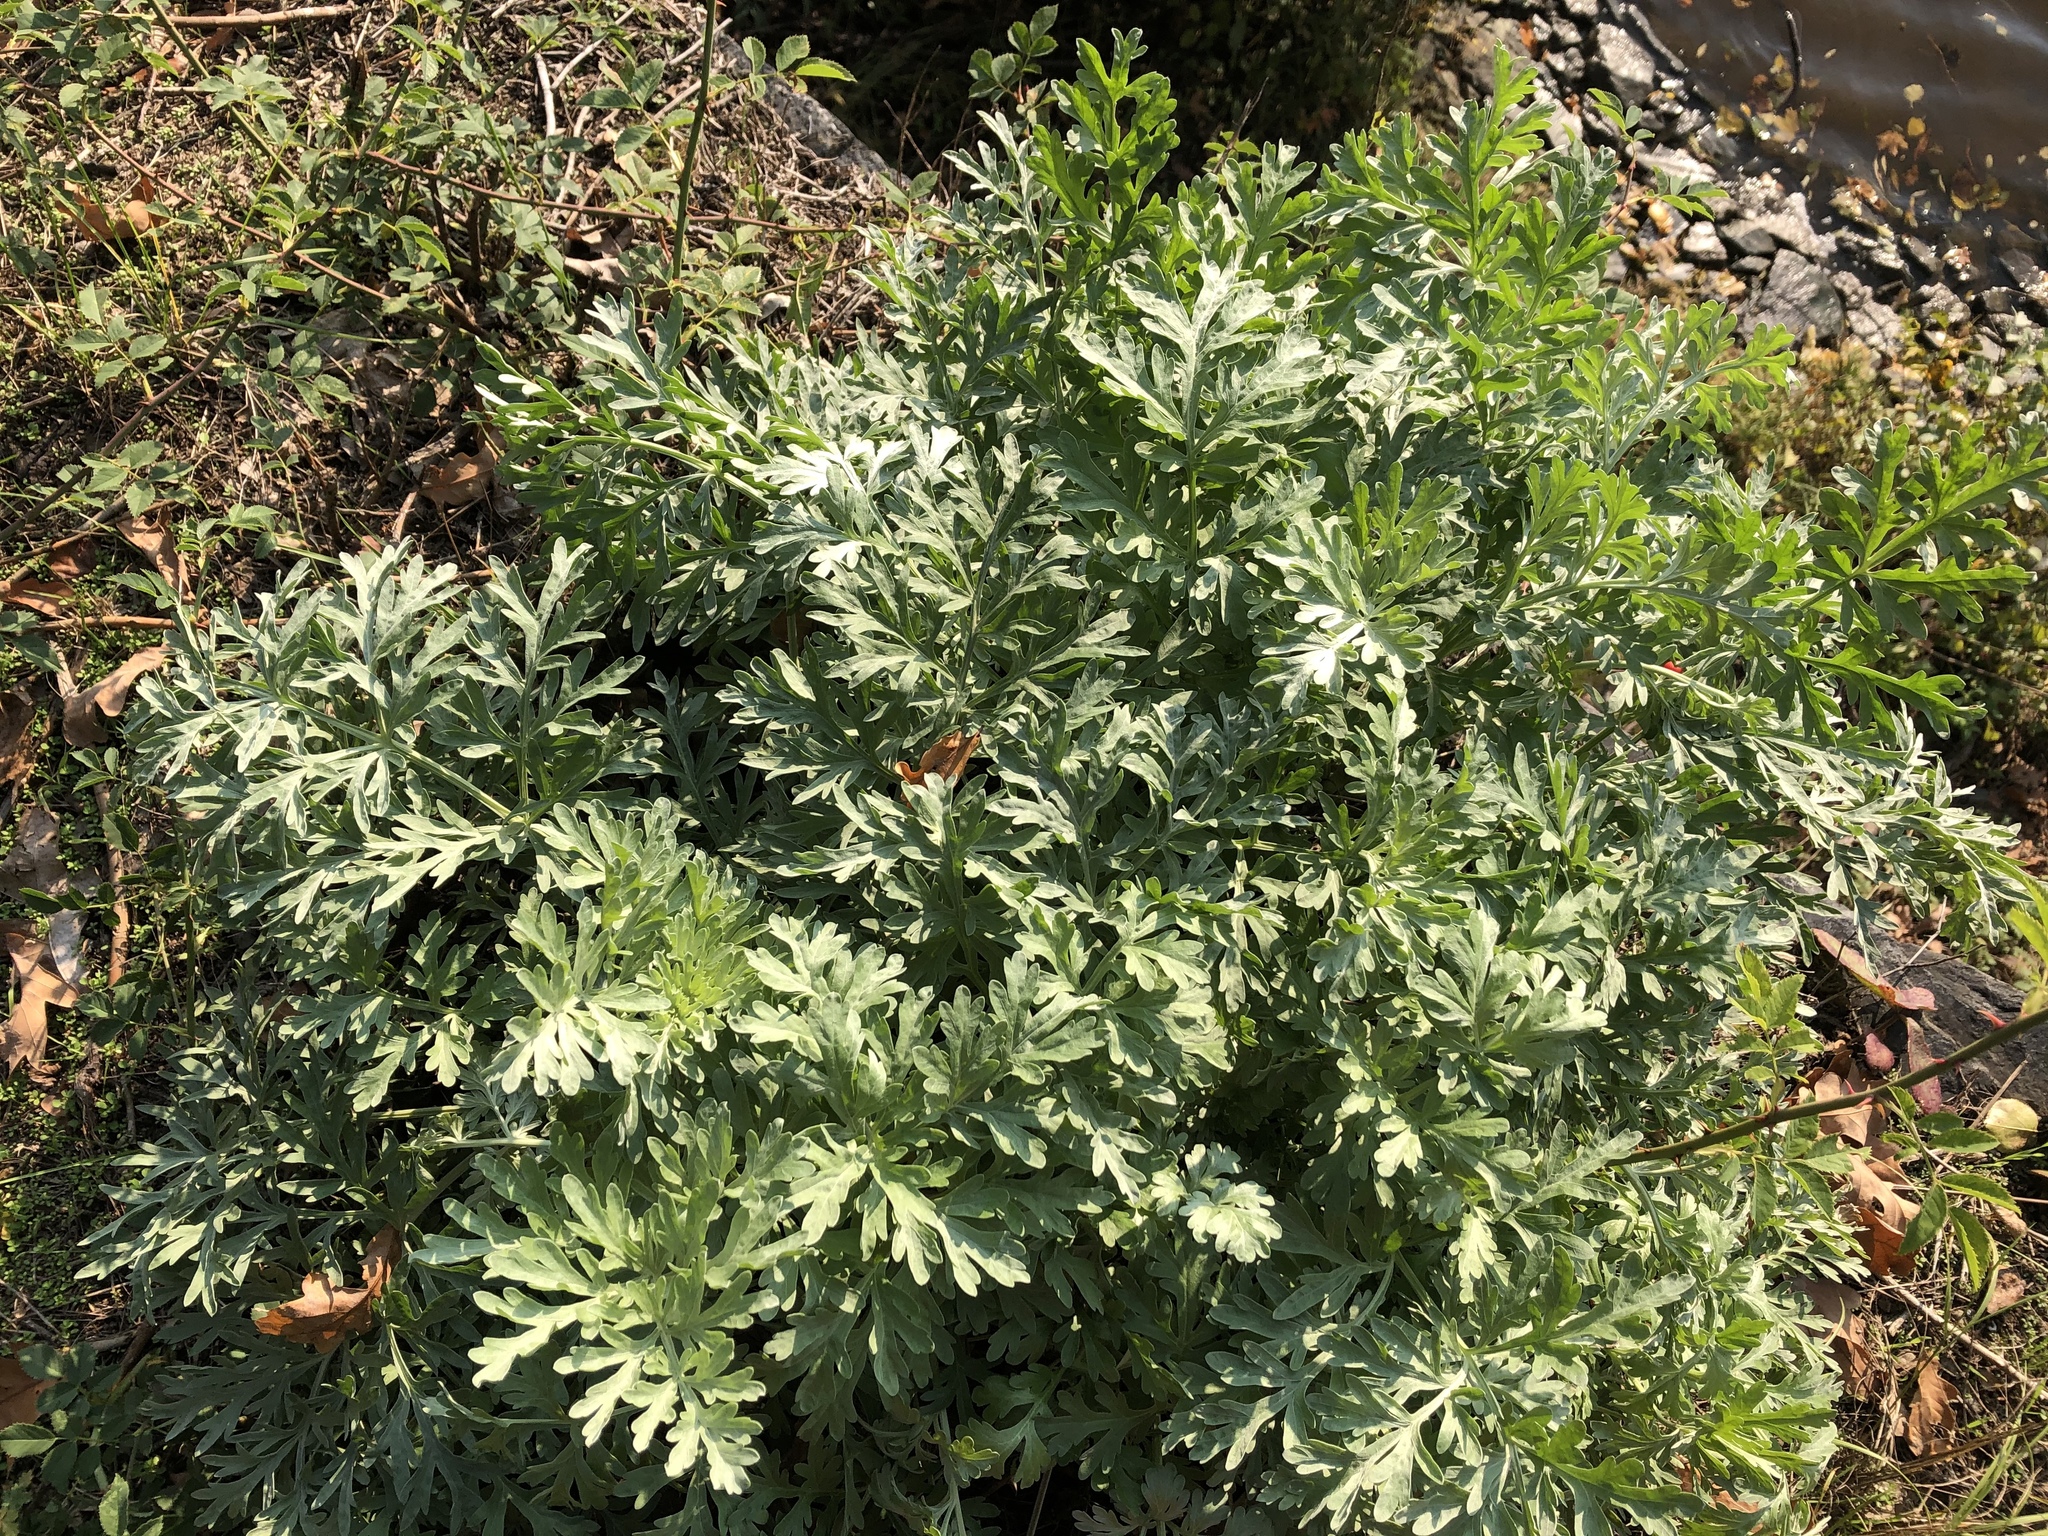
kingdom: Plantae
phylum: Tracheophyta
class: Magnoliopsida
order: Asterales
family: Asteraceae
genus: Artemisia
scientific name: Artemisia absinthium
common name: Wormwood
